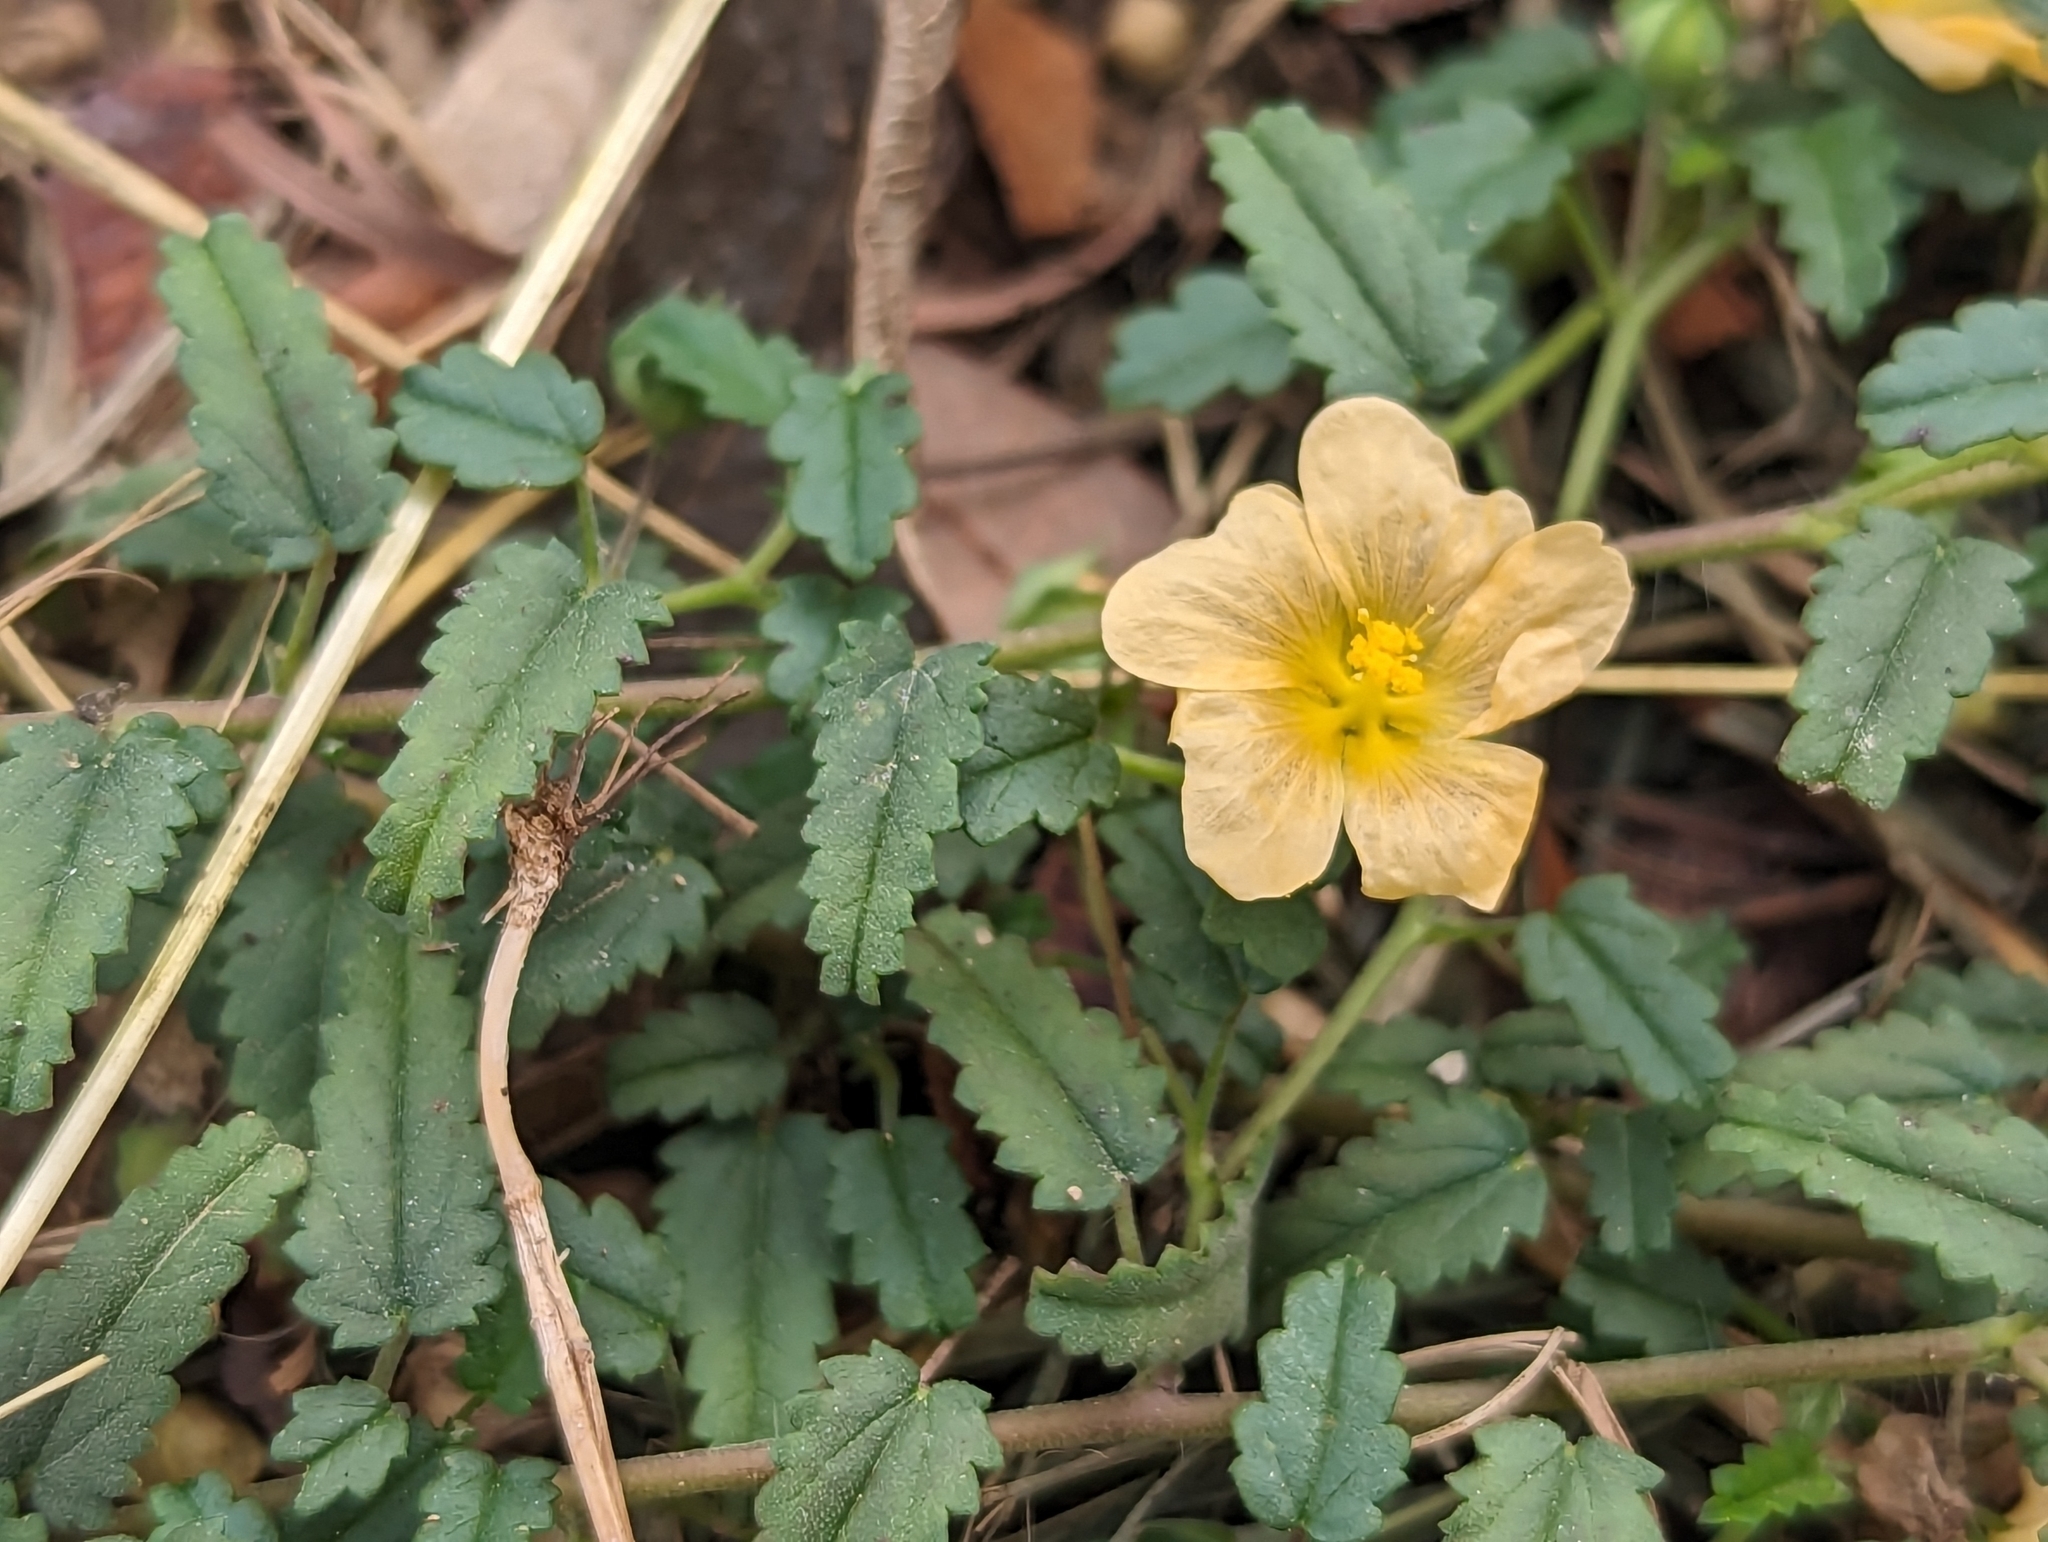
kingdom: Plantae
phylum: Tracheophyta
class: Magnoliopsida
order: Malvales
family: Malvaceae
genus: Sida
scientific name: Sida abutilifolia
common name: Spreading fanpetals
